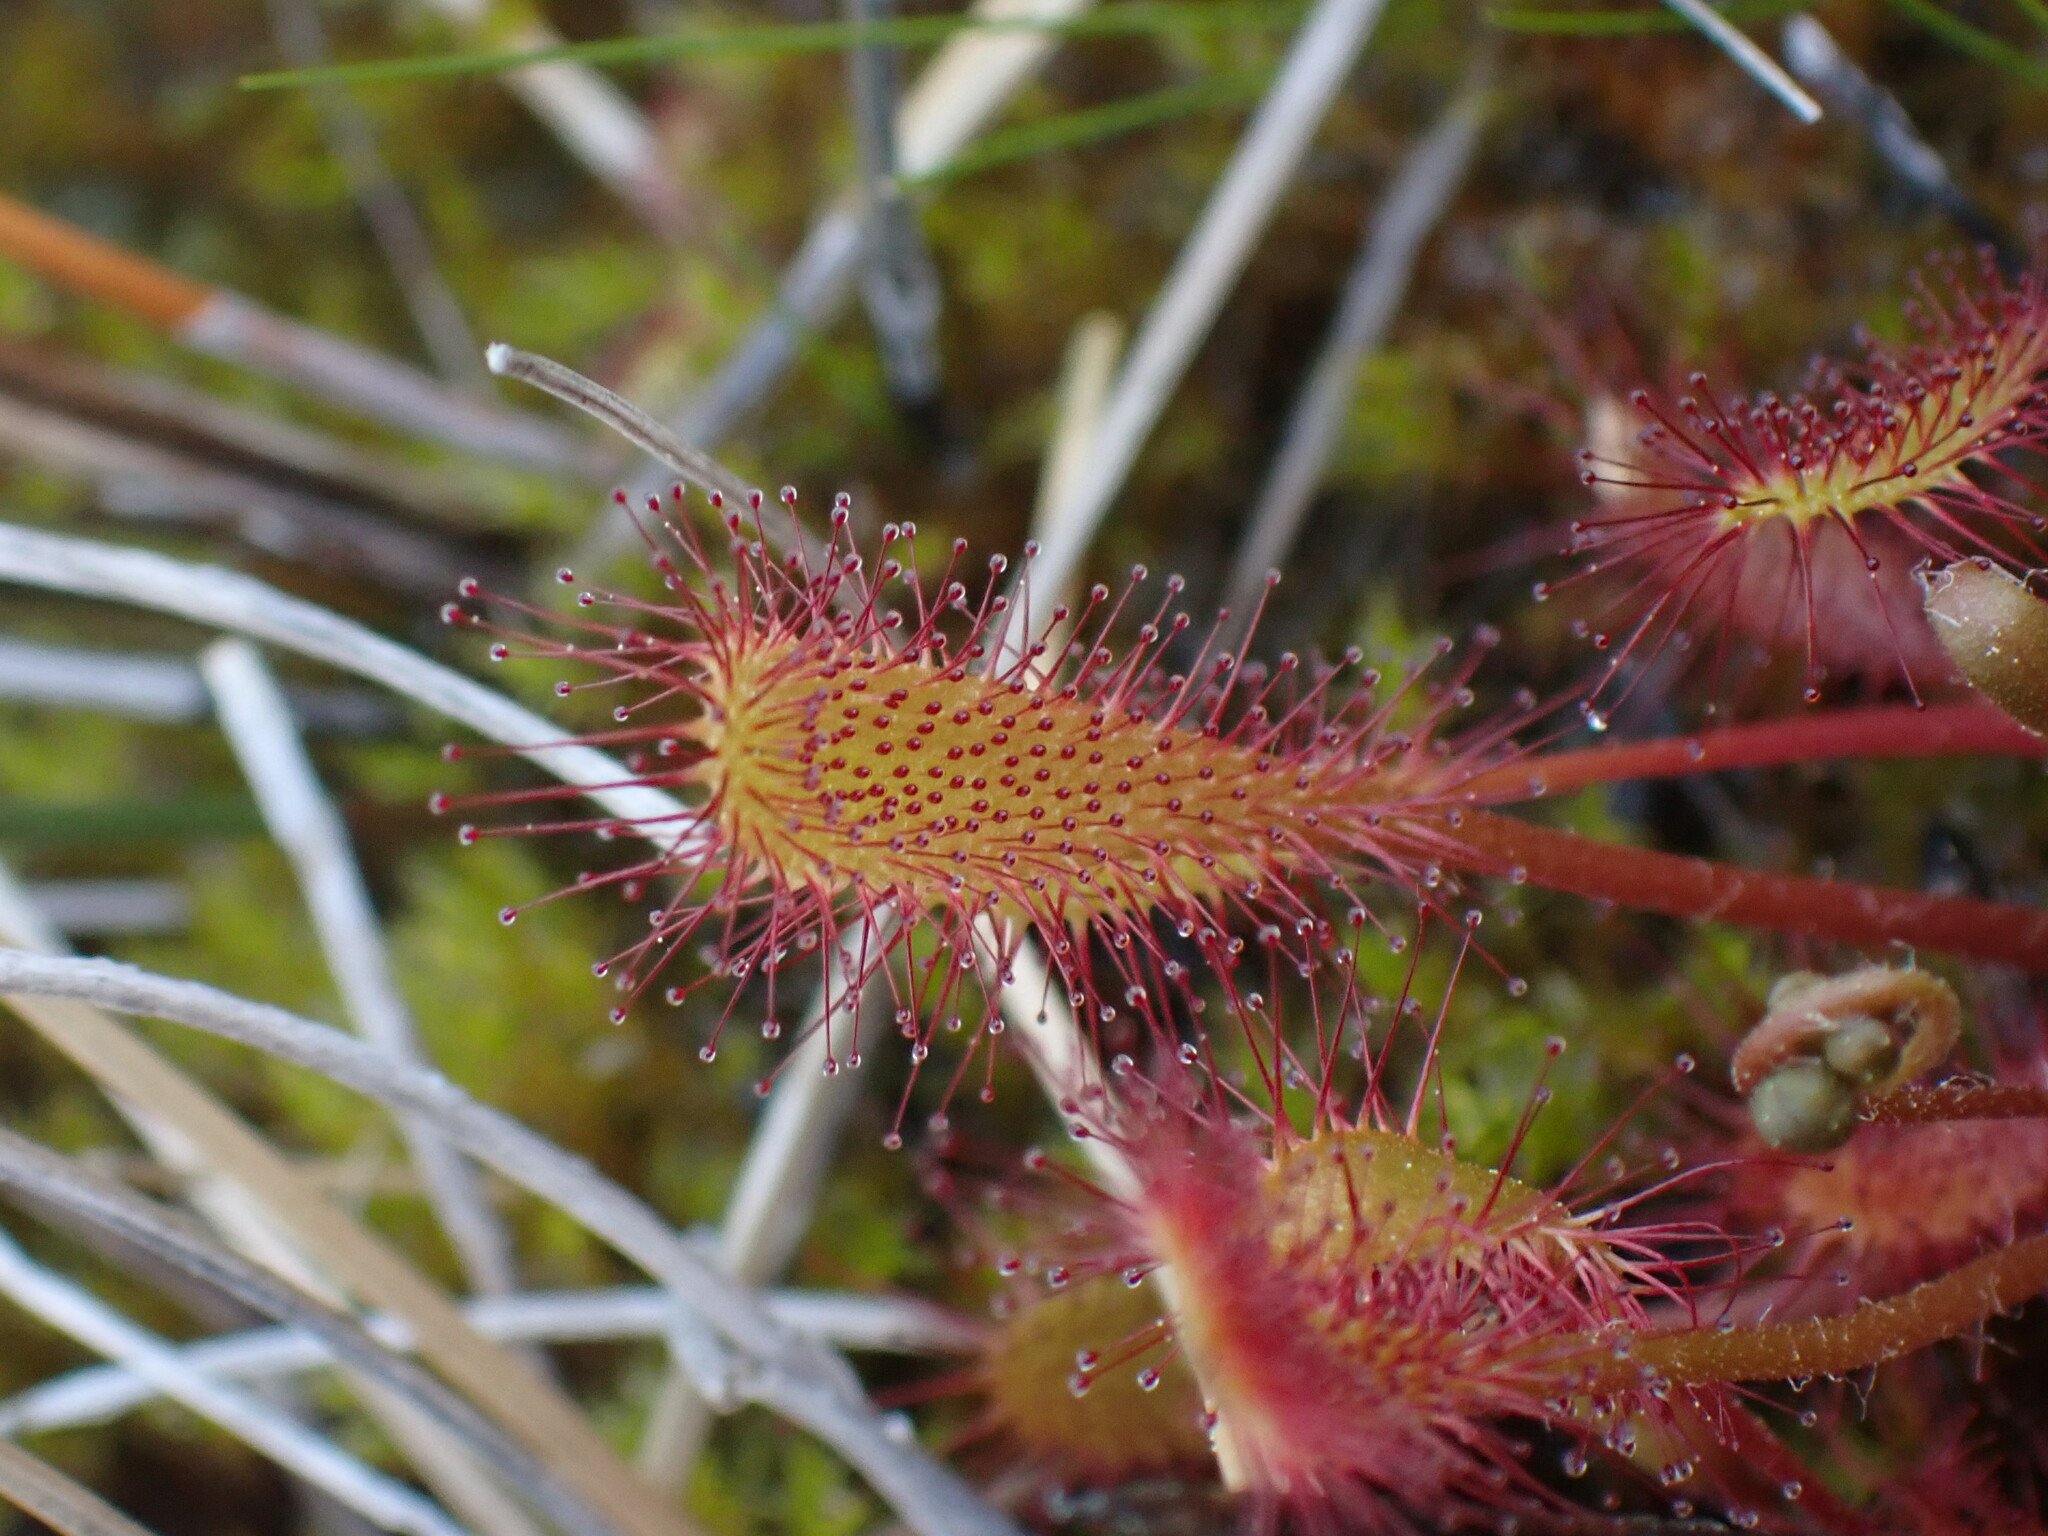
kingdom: Plantae
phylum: Tracheophyta
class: Magnoliopsida
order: Caryophyllales
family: Droseraceae
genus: Drosera
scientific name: Drosera anglica
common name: Great sundew
